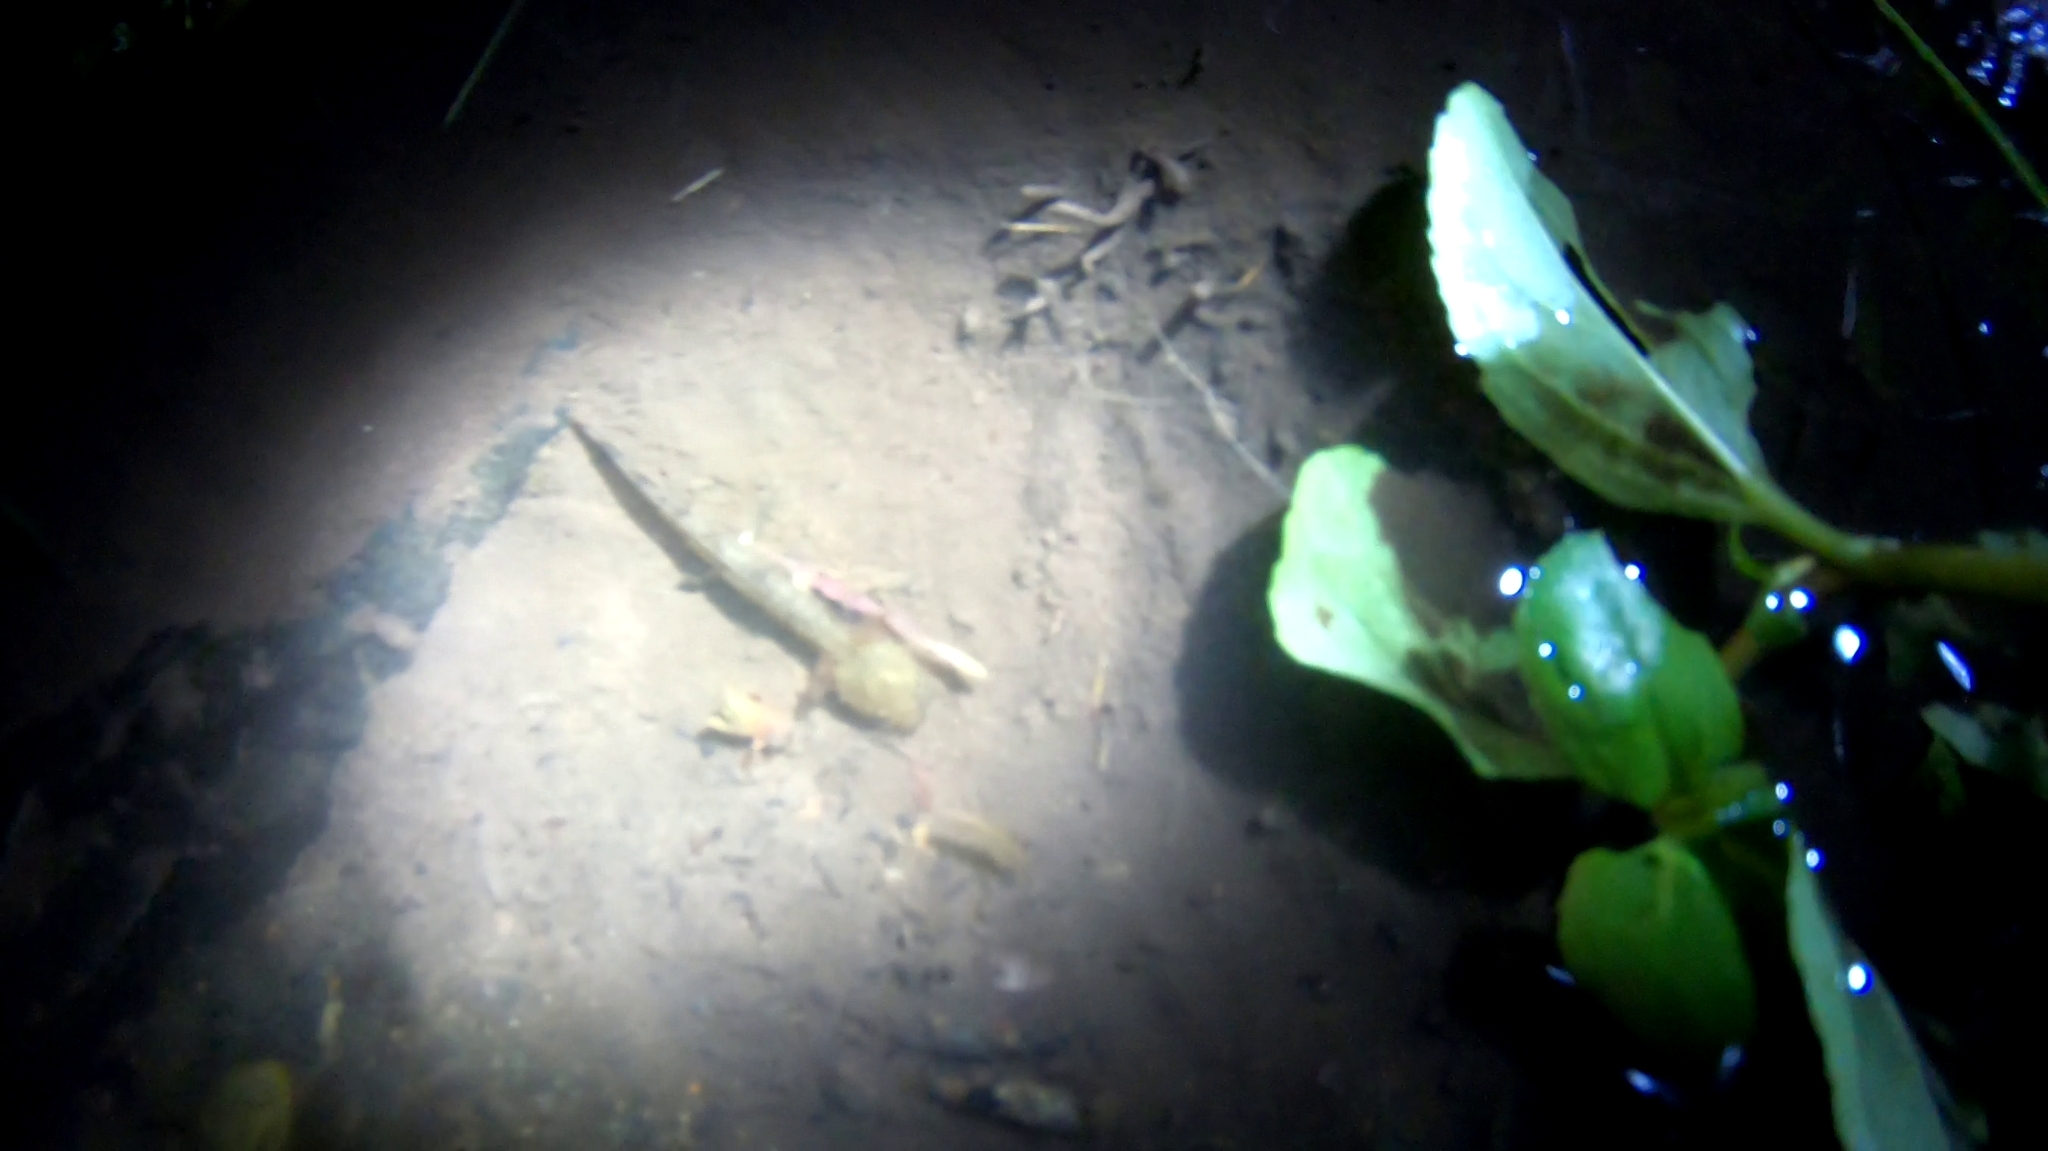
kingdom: Animalia
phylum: Chordata
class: Amphibia
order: Caudata
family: Salamandridae
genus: Salamandra
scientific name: Salamandra salamandra
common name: Fire salamander
